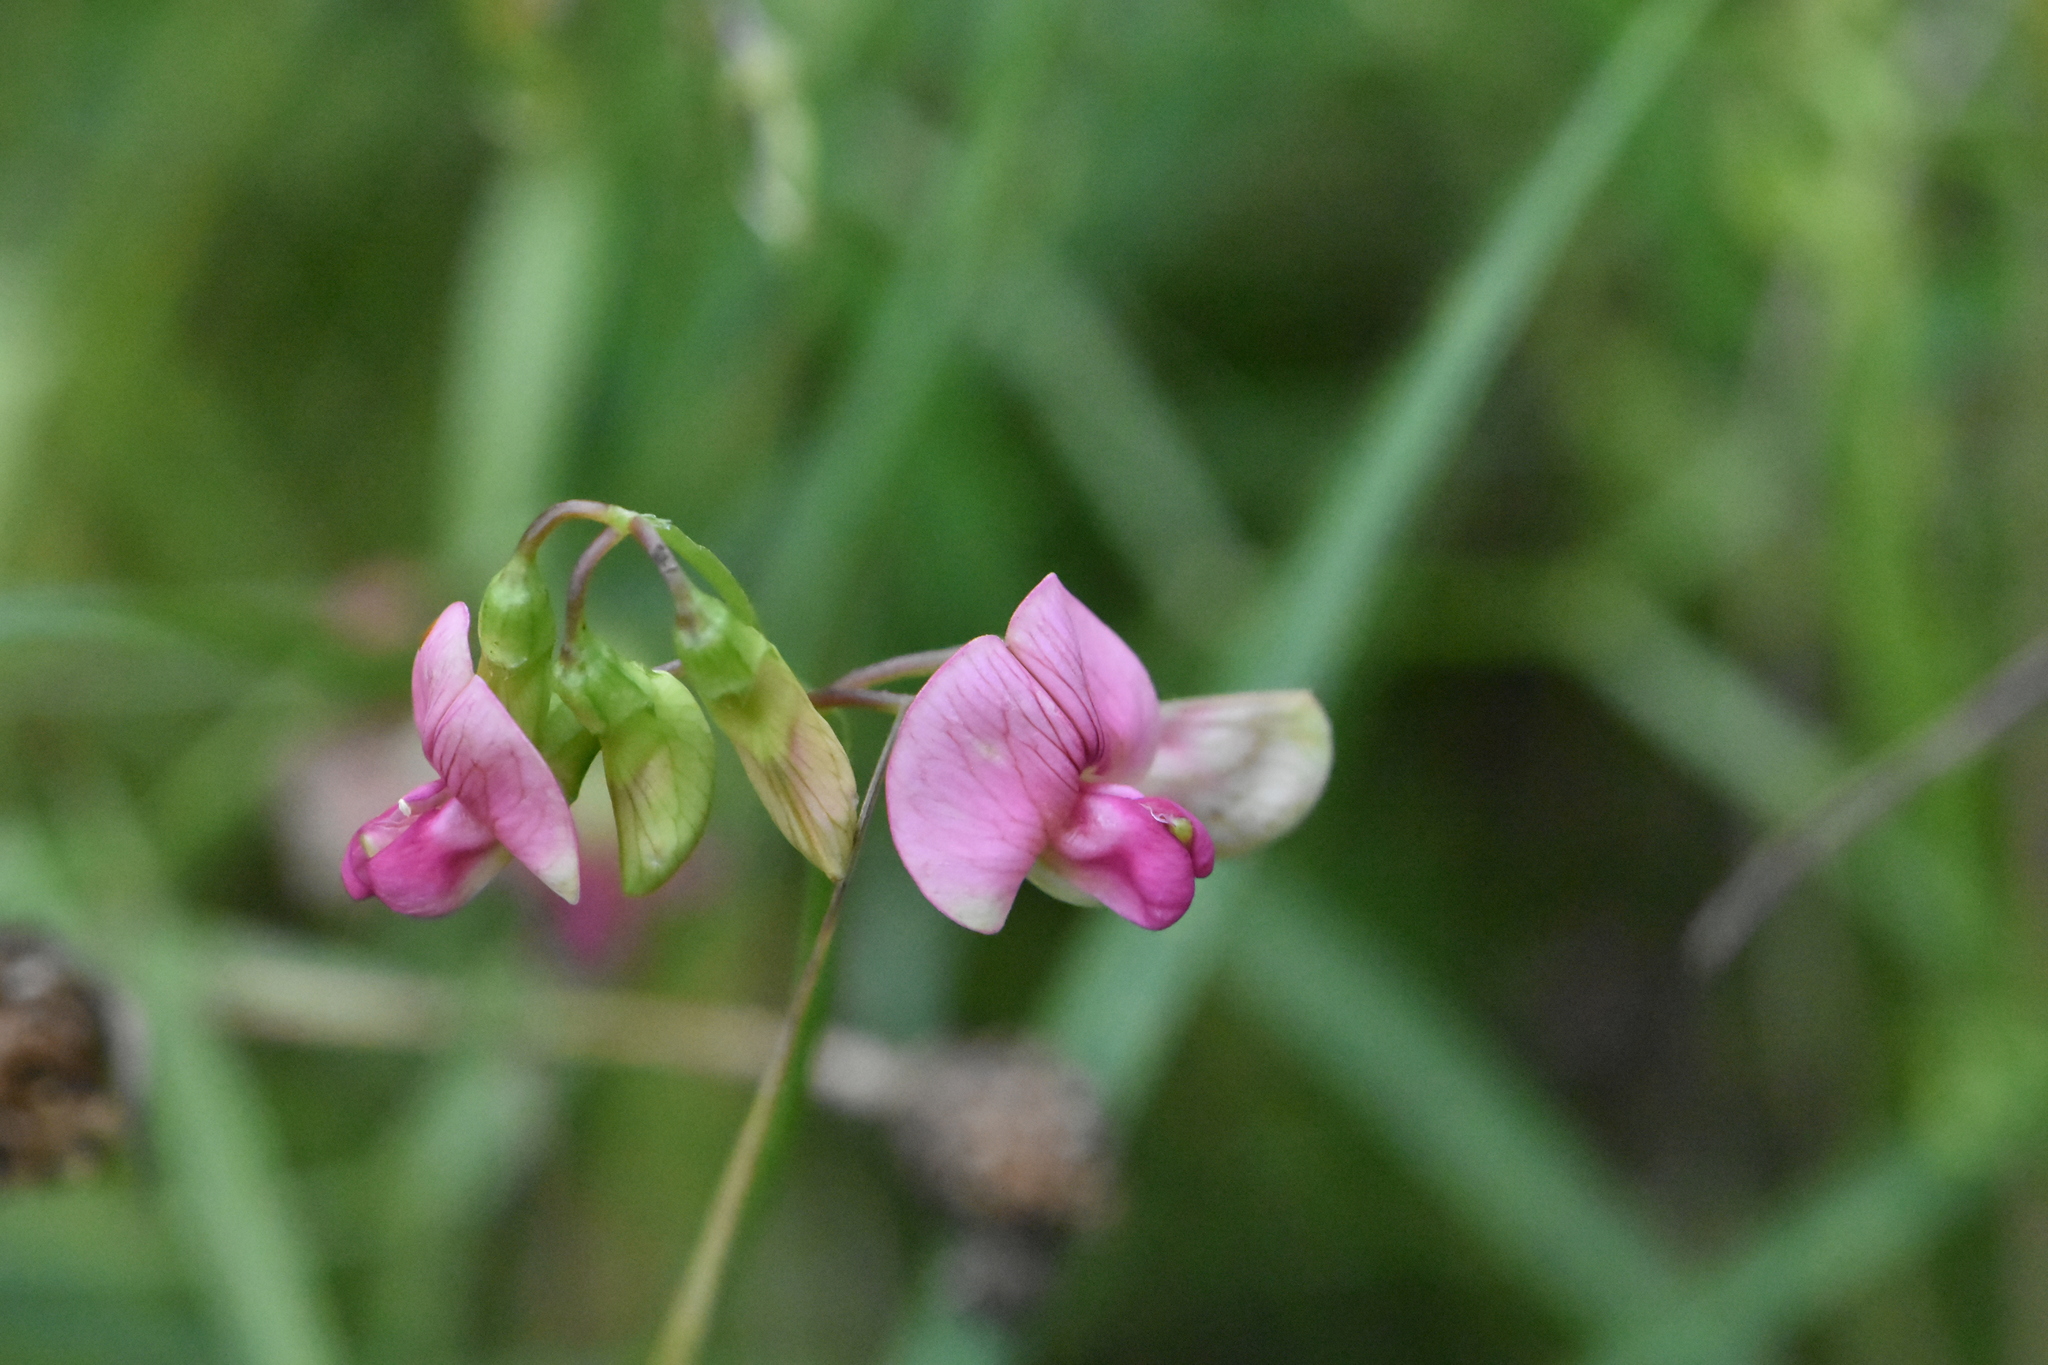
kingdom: Plantae
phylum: Tracheophyta
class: Magnoliopsida
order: Fabales
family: Fabaceae
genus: Lathyrus
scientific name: Lathyrus sylvestris
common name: Flat pea
